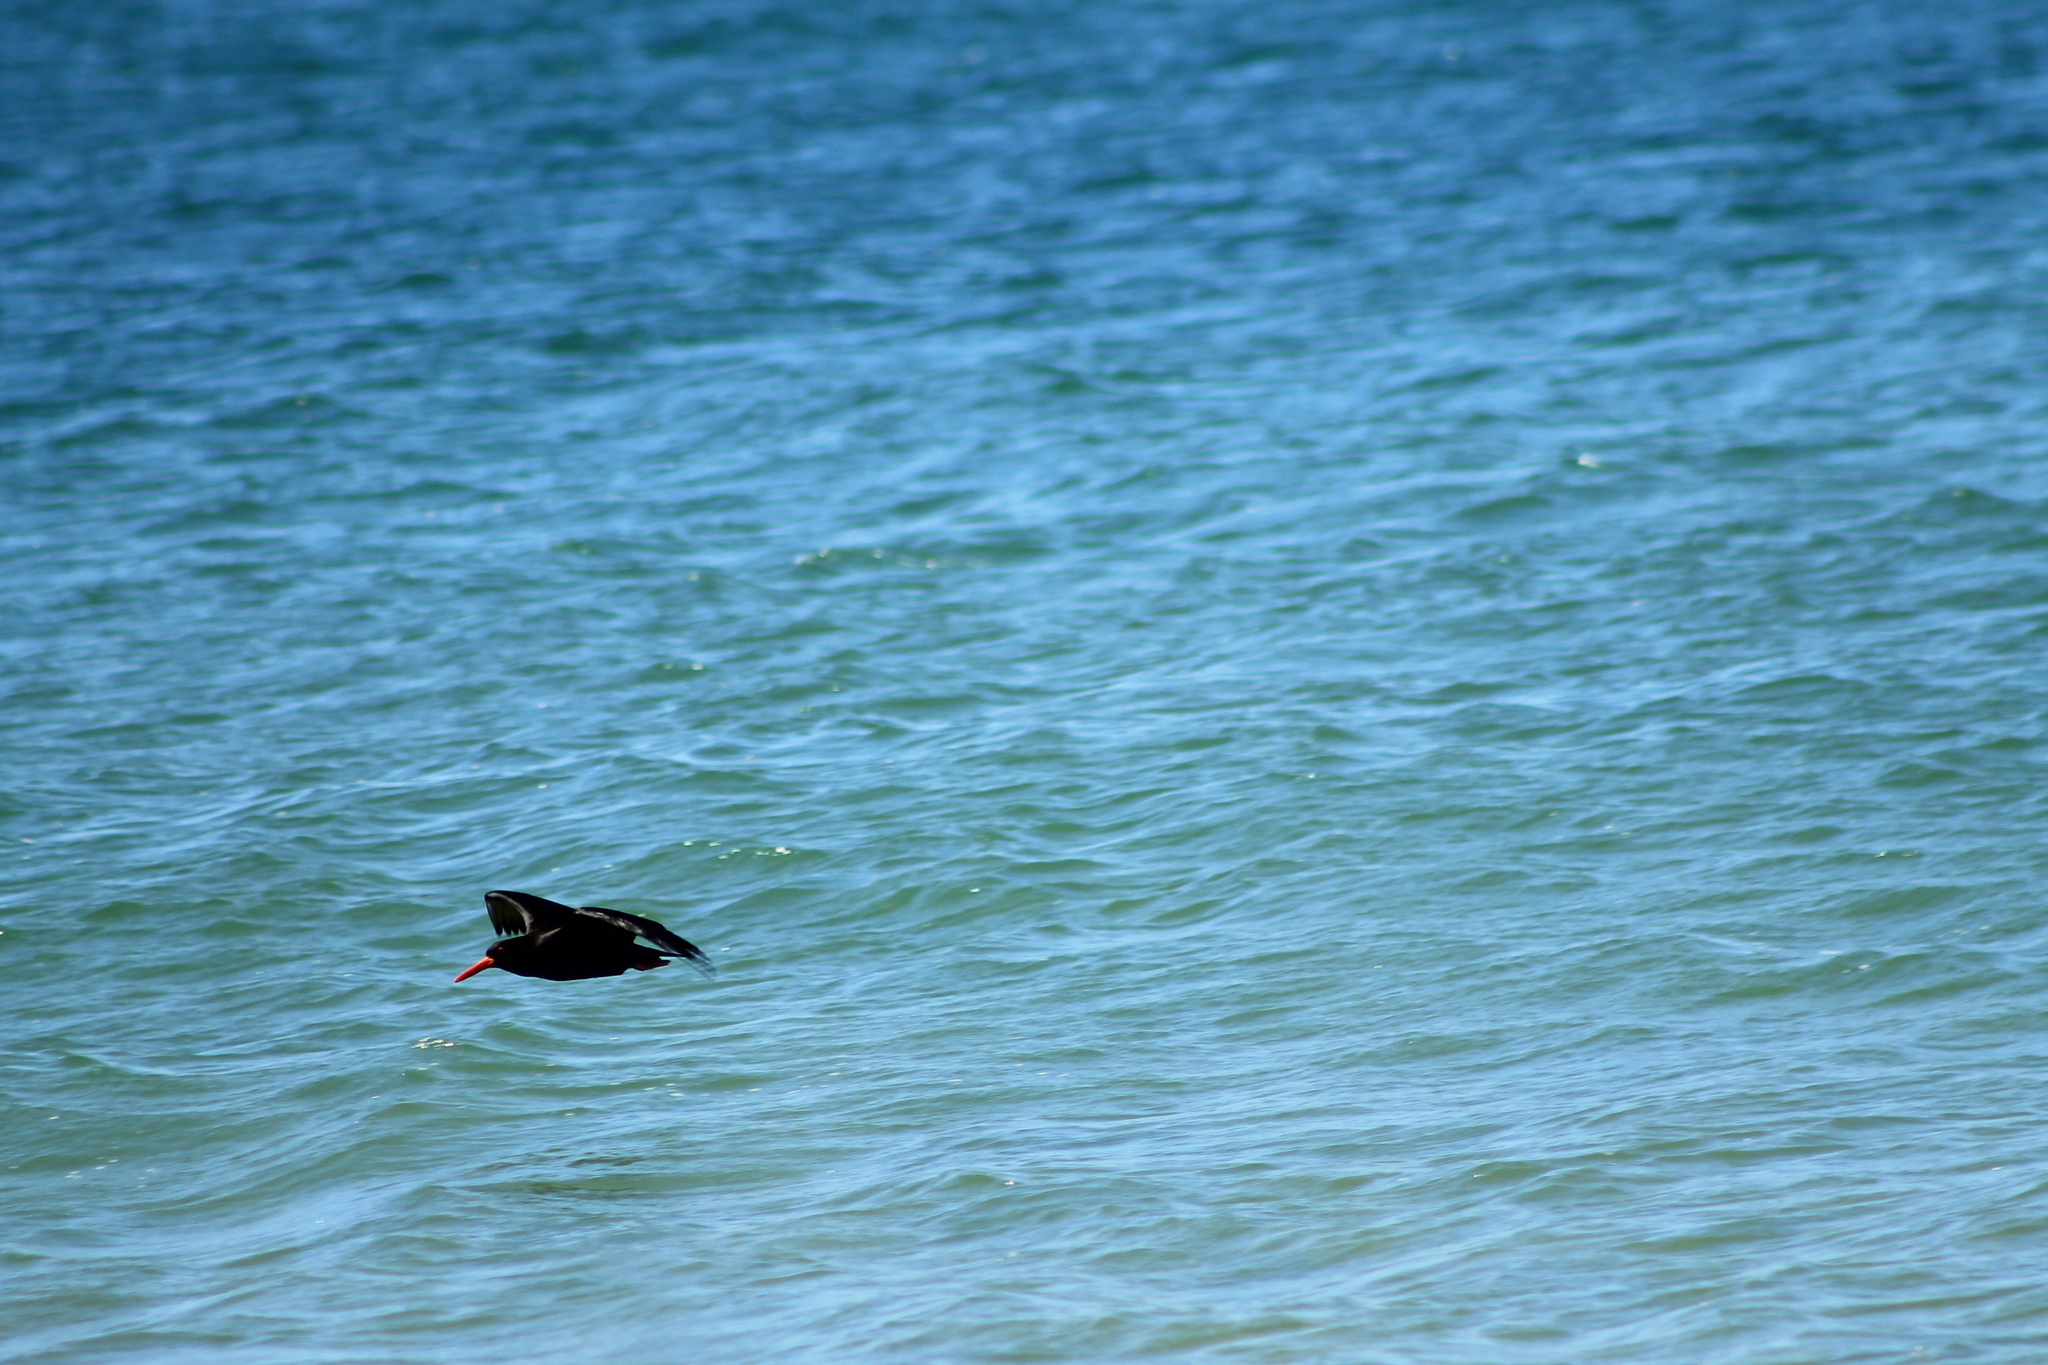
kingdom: Animalia
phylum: Chordata
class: Aves
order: Charadriiformes
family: Haematopodidae
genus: Haematopus
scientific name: Haematopus fuliginosus
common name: Sooty oystercatcher
